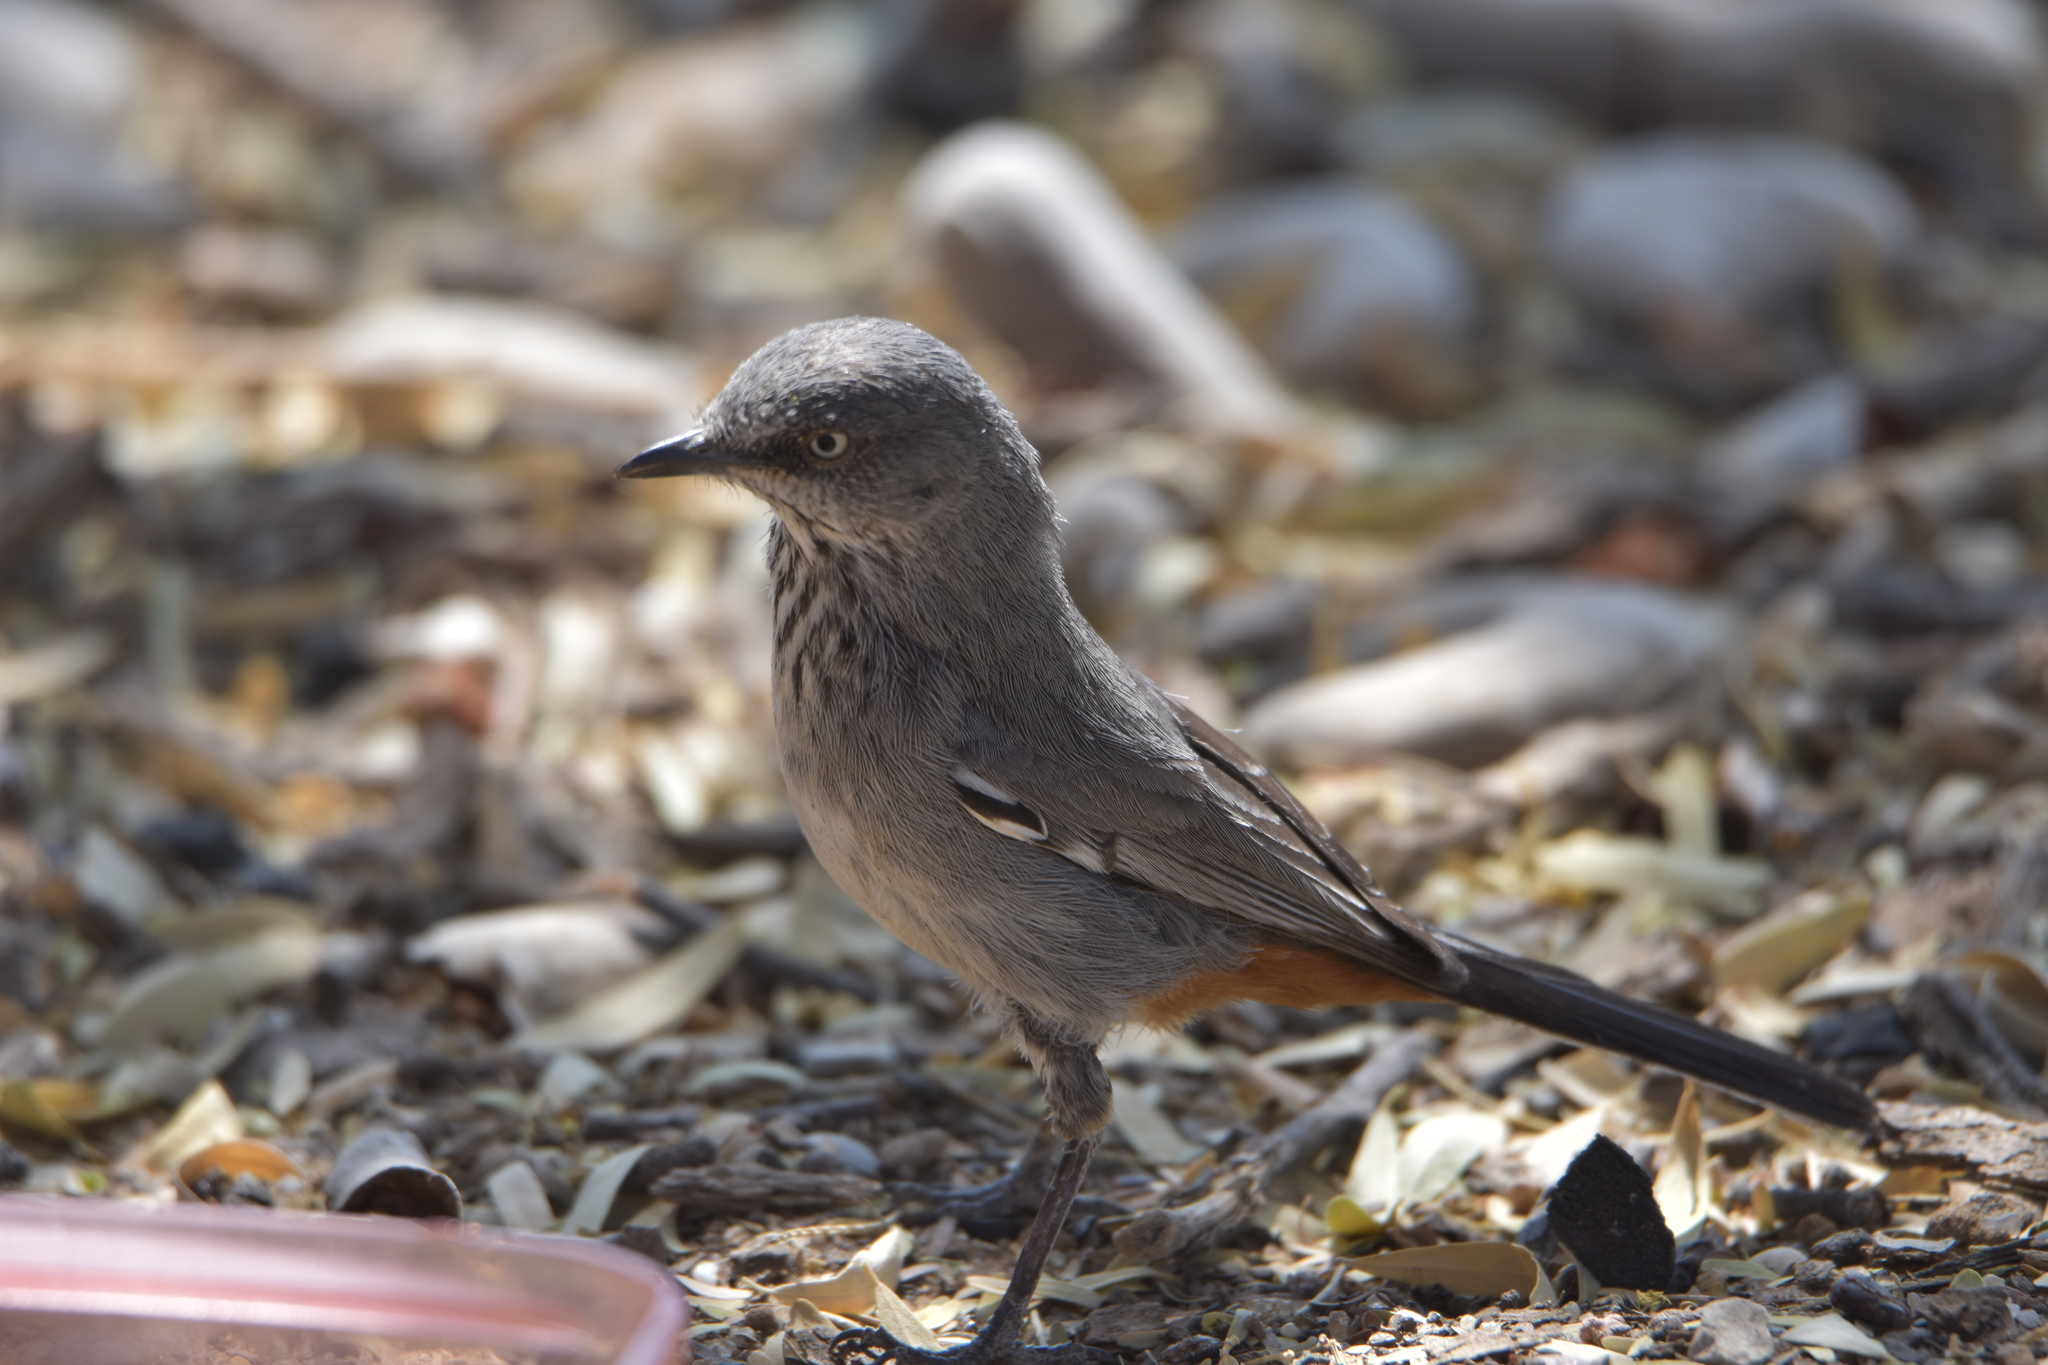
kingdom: Animalia
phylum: Chordata
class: Aves
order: Passeriformes
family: Sylviidae
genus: Curruca
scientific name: Curruca subcoerulea
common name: Chestnut-vented warbler
